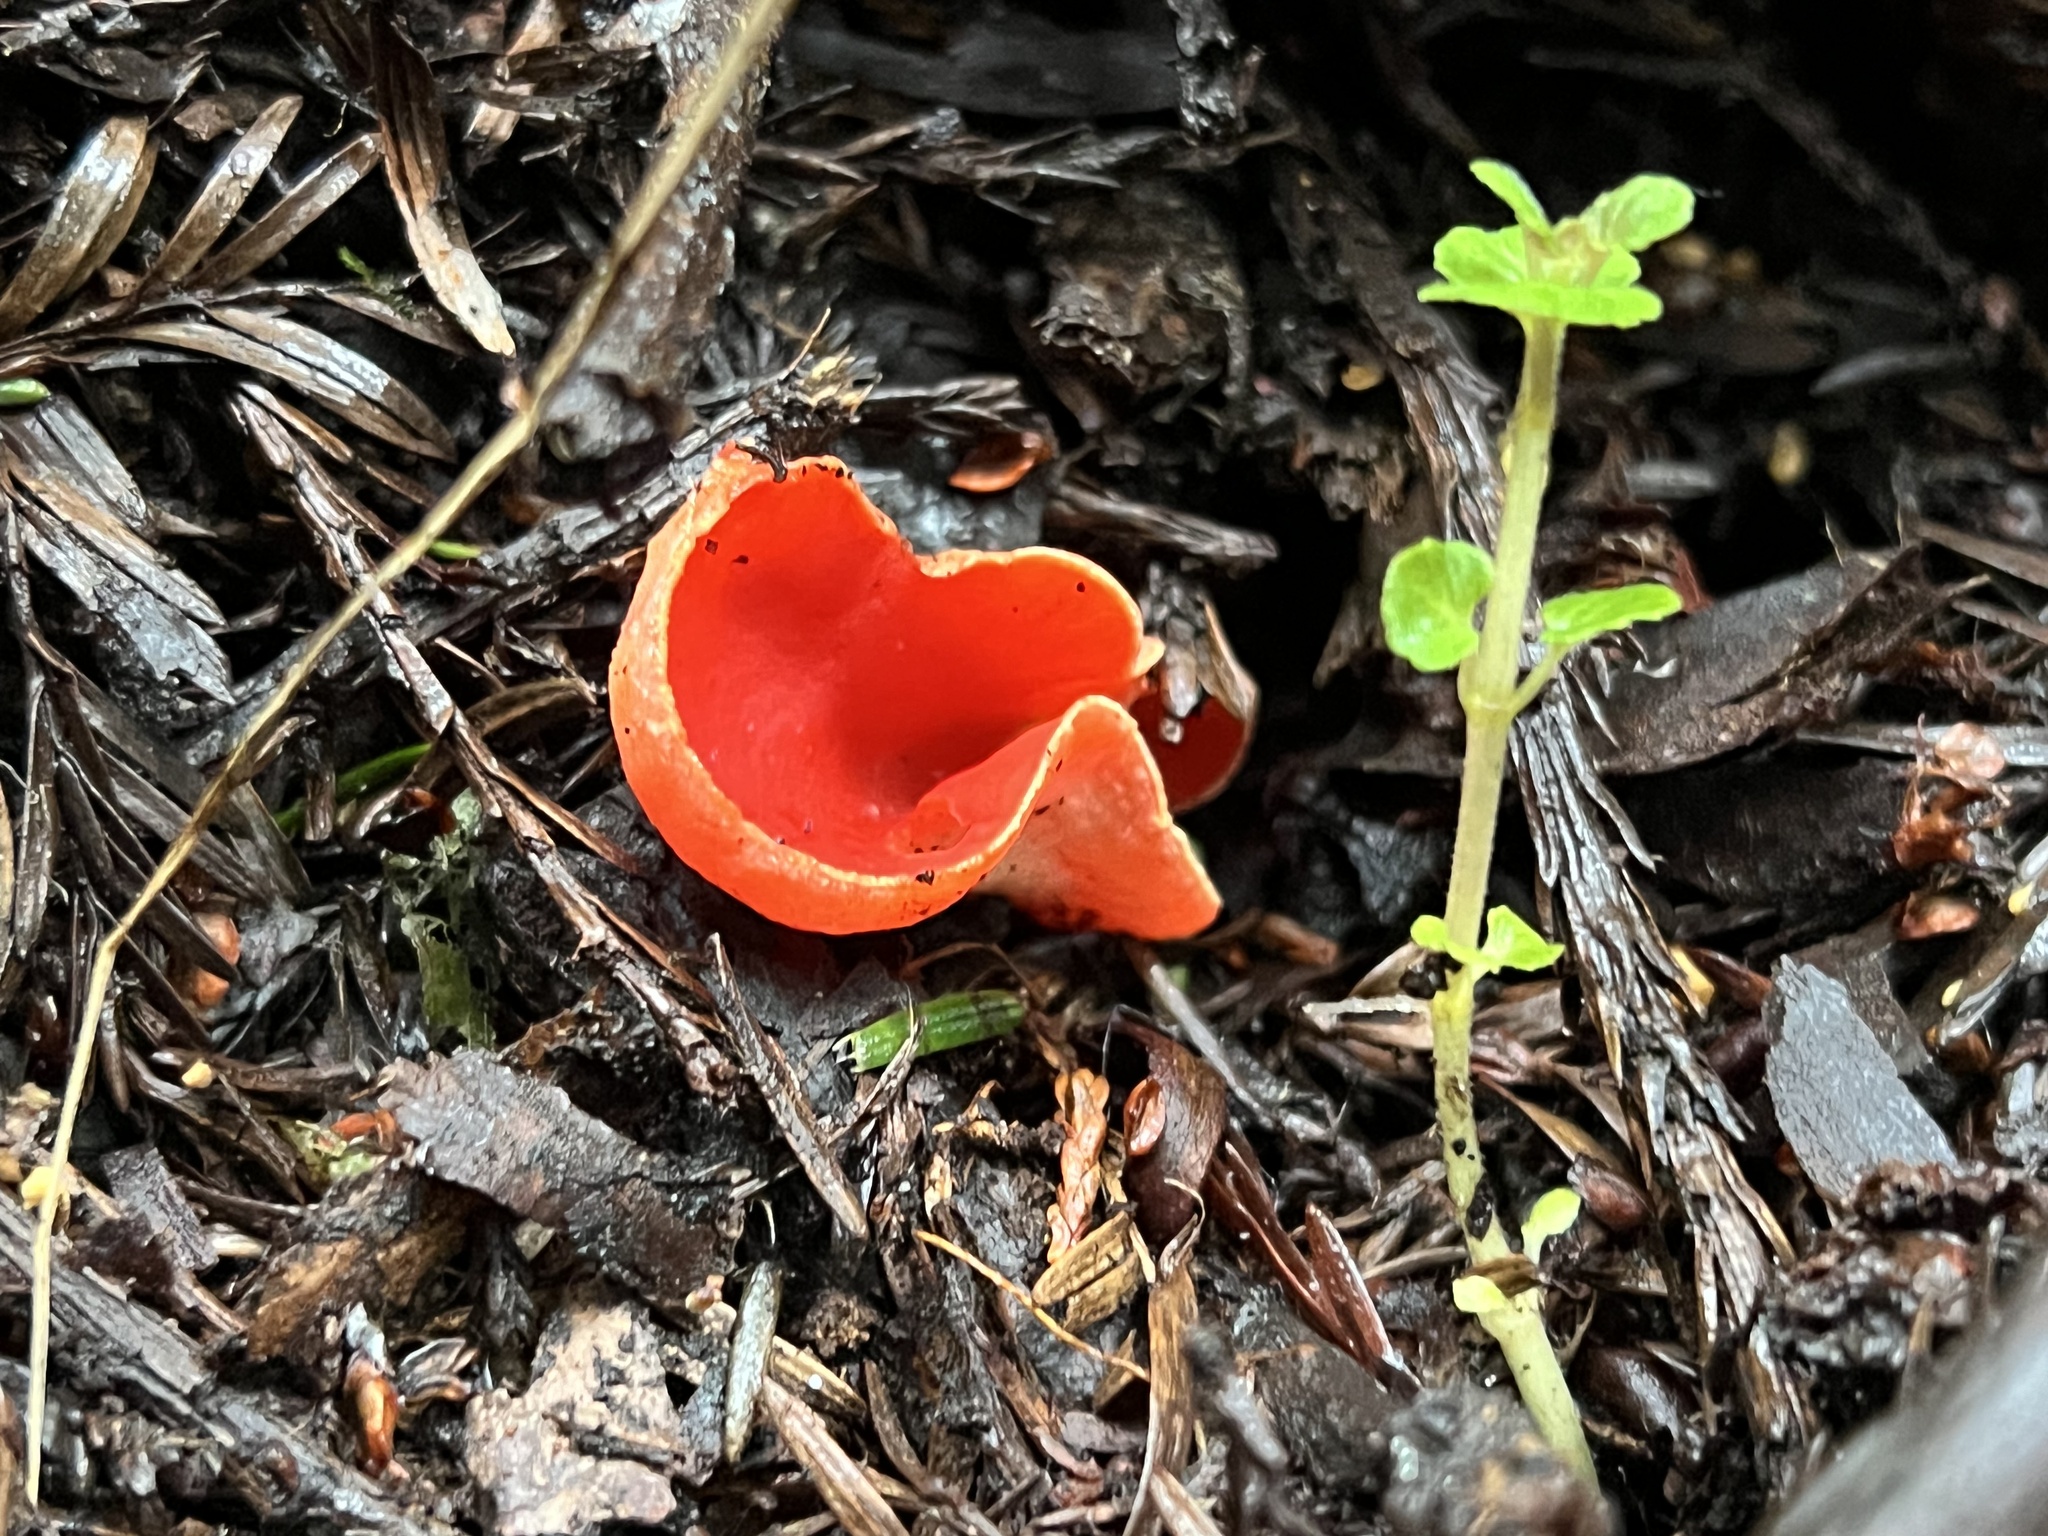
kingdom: Fungi
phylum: Ascomycota
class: Pezizomycetes
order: Pezizales
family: Sarcoscyphaceae
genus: Sarcoscypha
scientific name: Sarcoscypha coccinea
